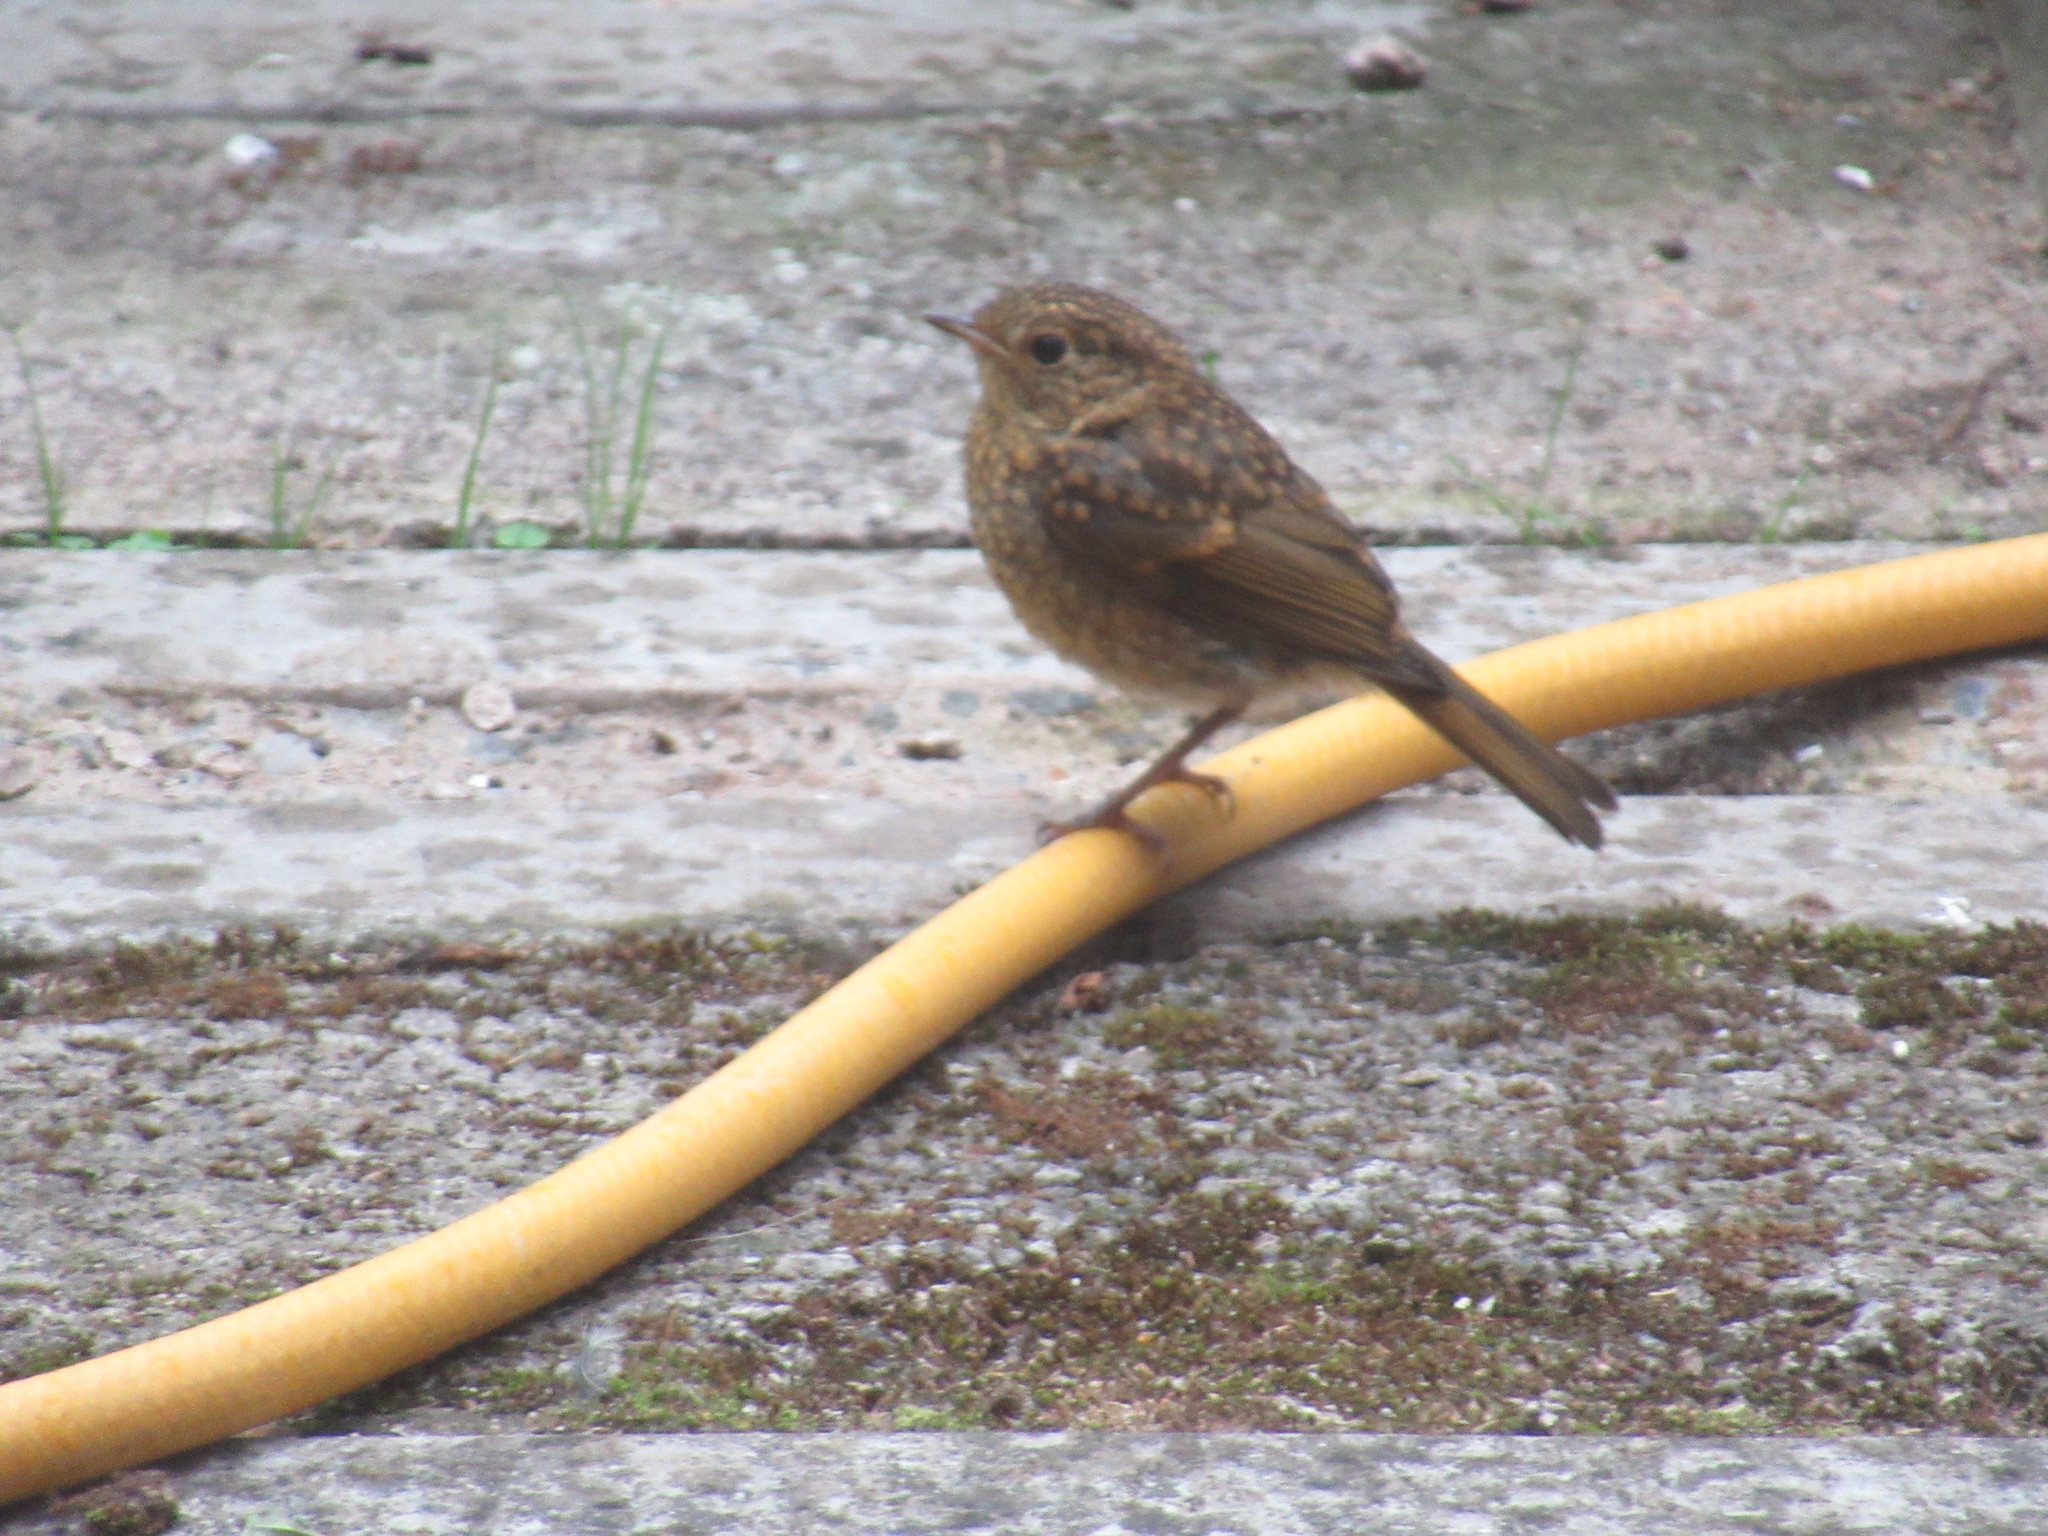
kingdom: Animalia
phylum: Chordata
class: Aves
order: Passeriformes
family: Muscicapidae
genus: Erithacus
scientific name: Erithacus rubecula
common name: European robin
